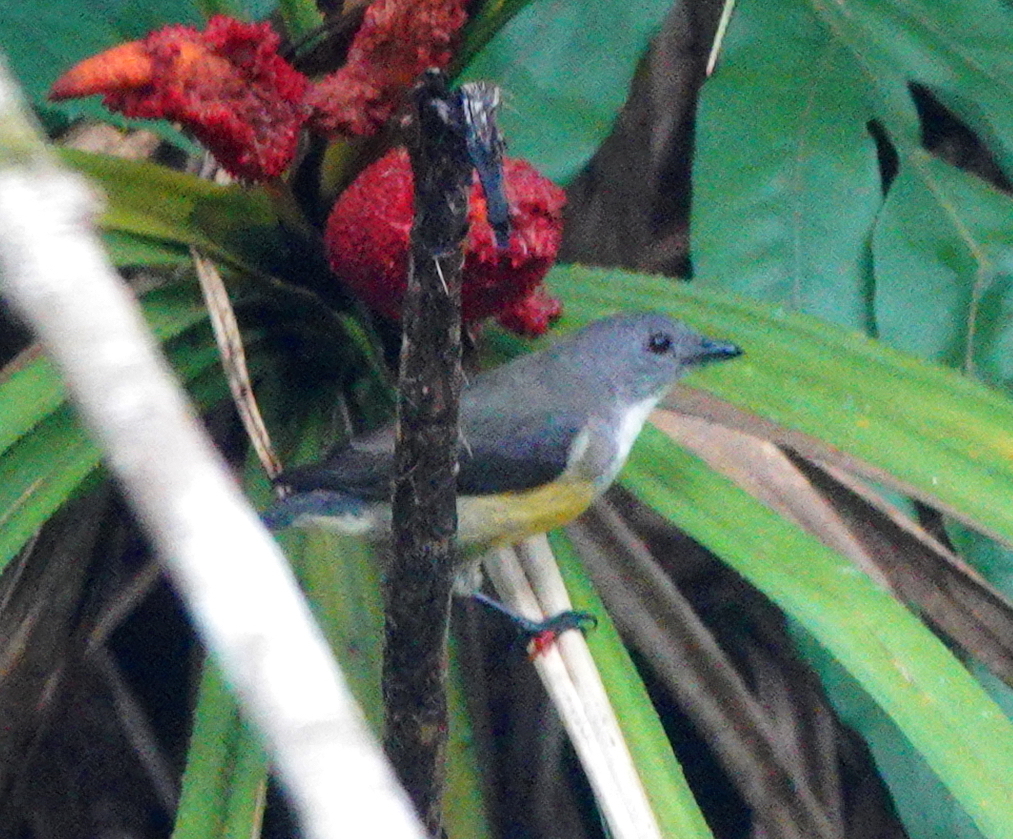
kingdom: Animalia
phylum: Chordata
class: Aves
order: Passeriformes
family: Dicaeidae
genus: Dicaeum
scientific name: Dicaeum vincens
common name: Legge's flowerpecker
